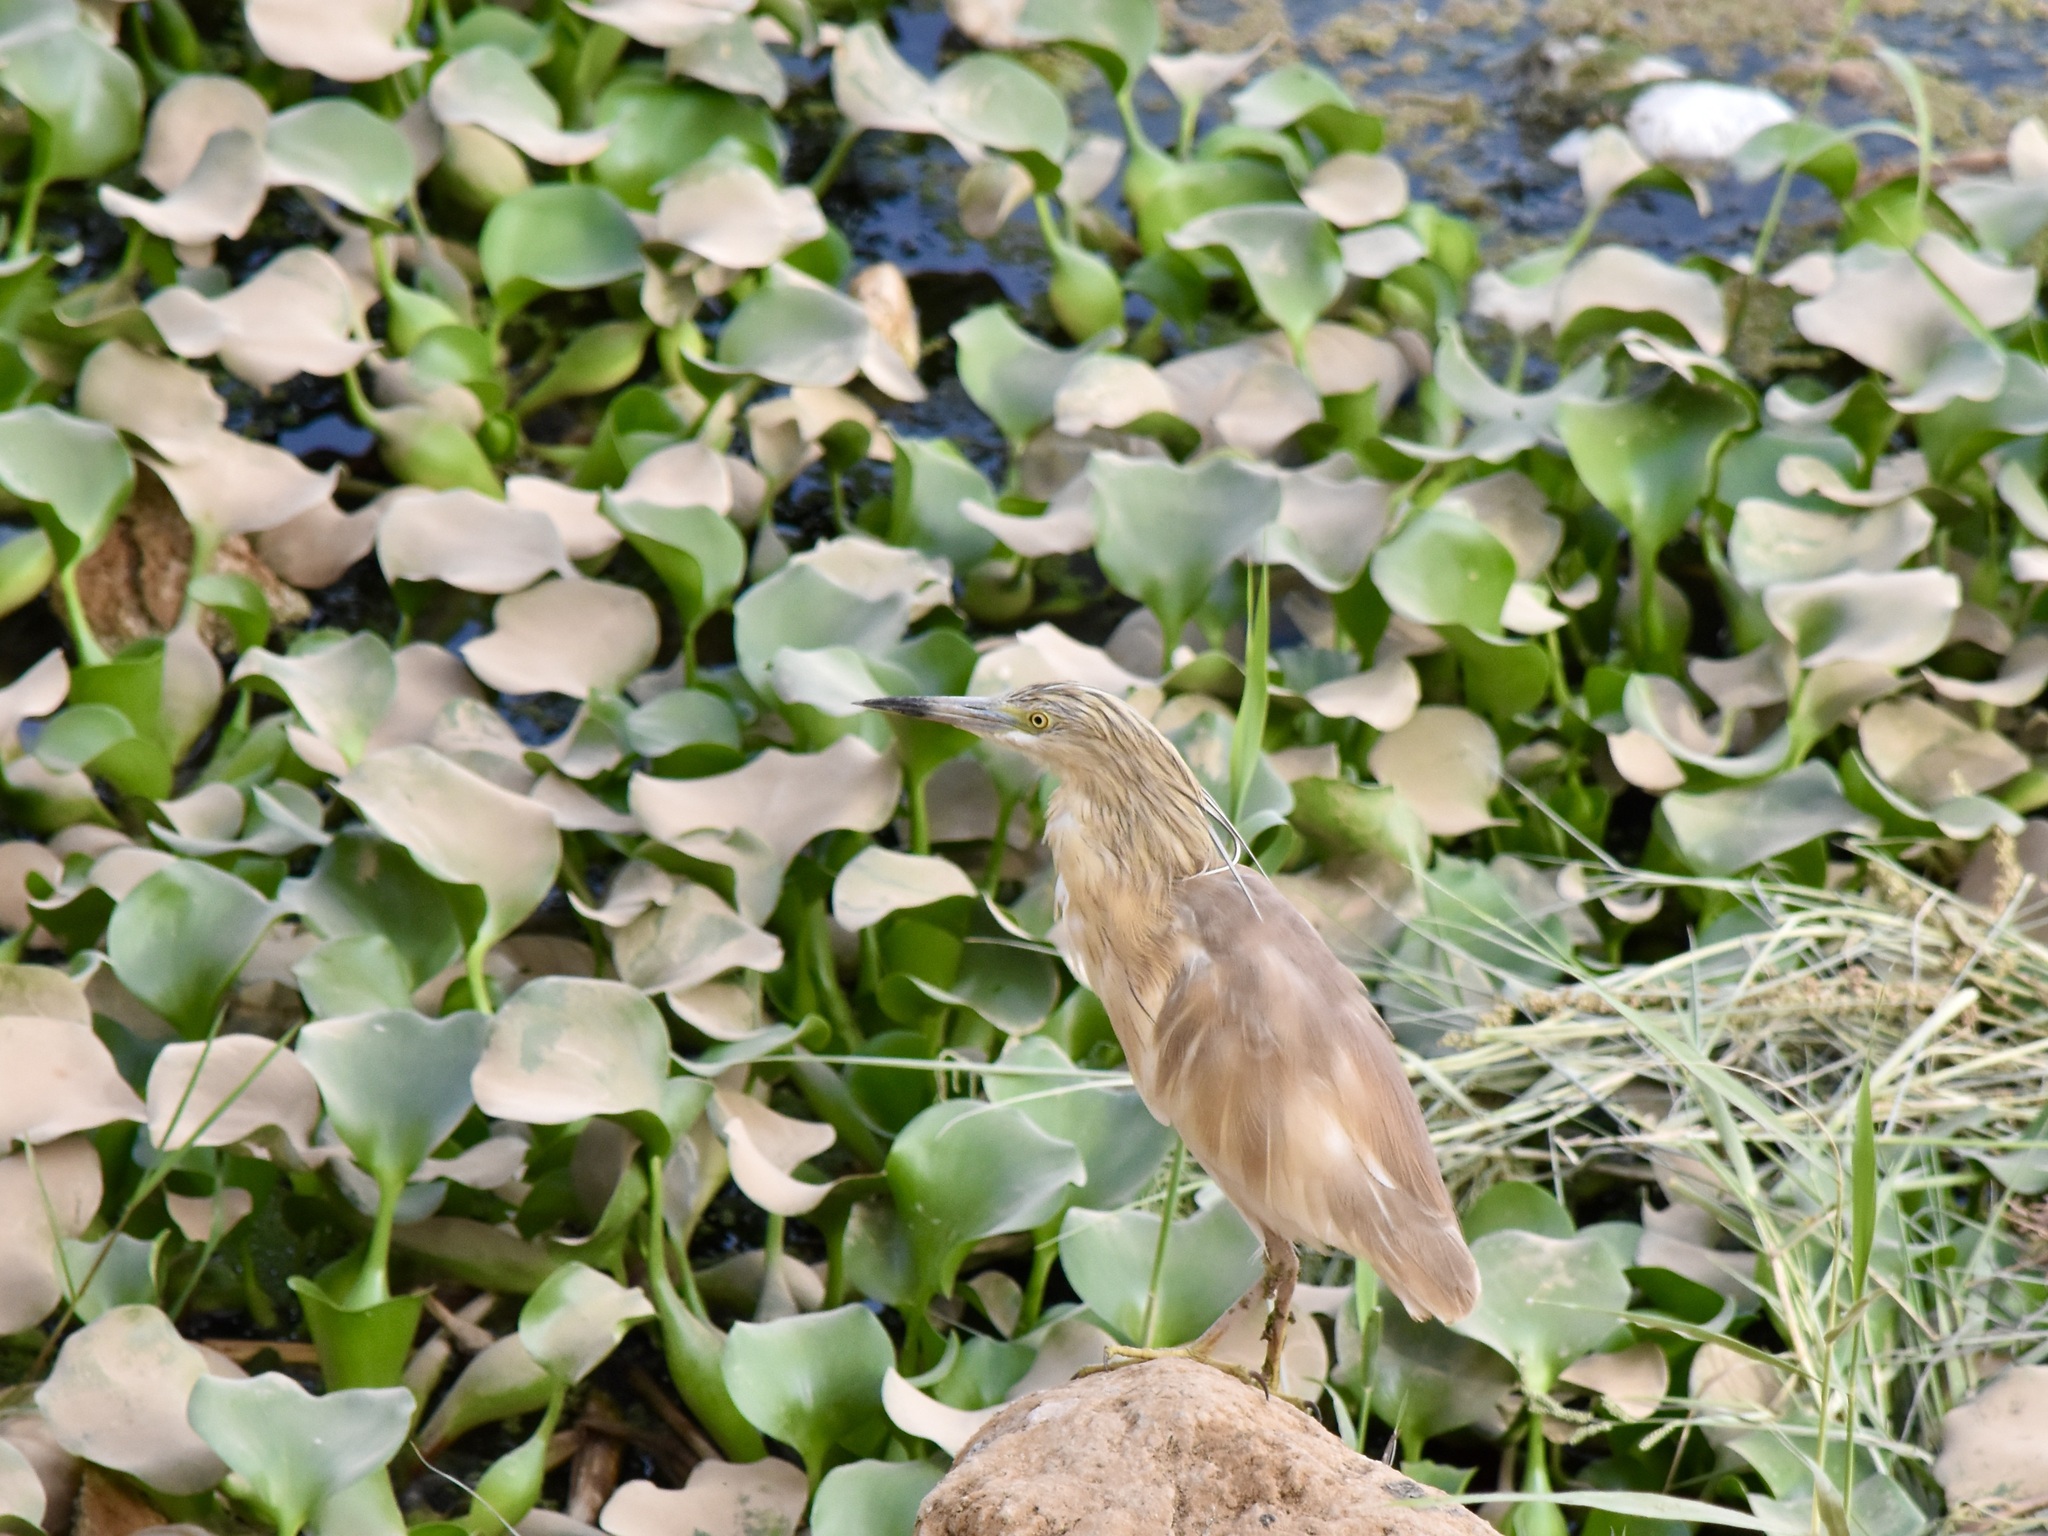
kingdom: Animalia
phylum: Chordata
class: Aves
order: Pelecaniformes
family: Ardeidae
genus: Ardeola
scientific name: Ardeola ralloides
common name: Squacco heron
